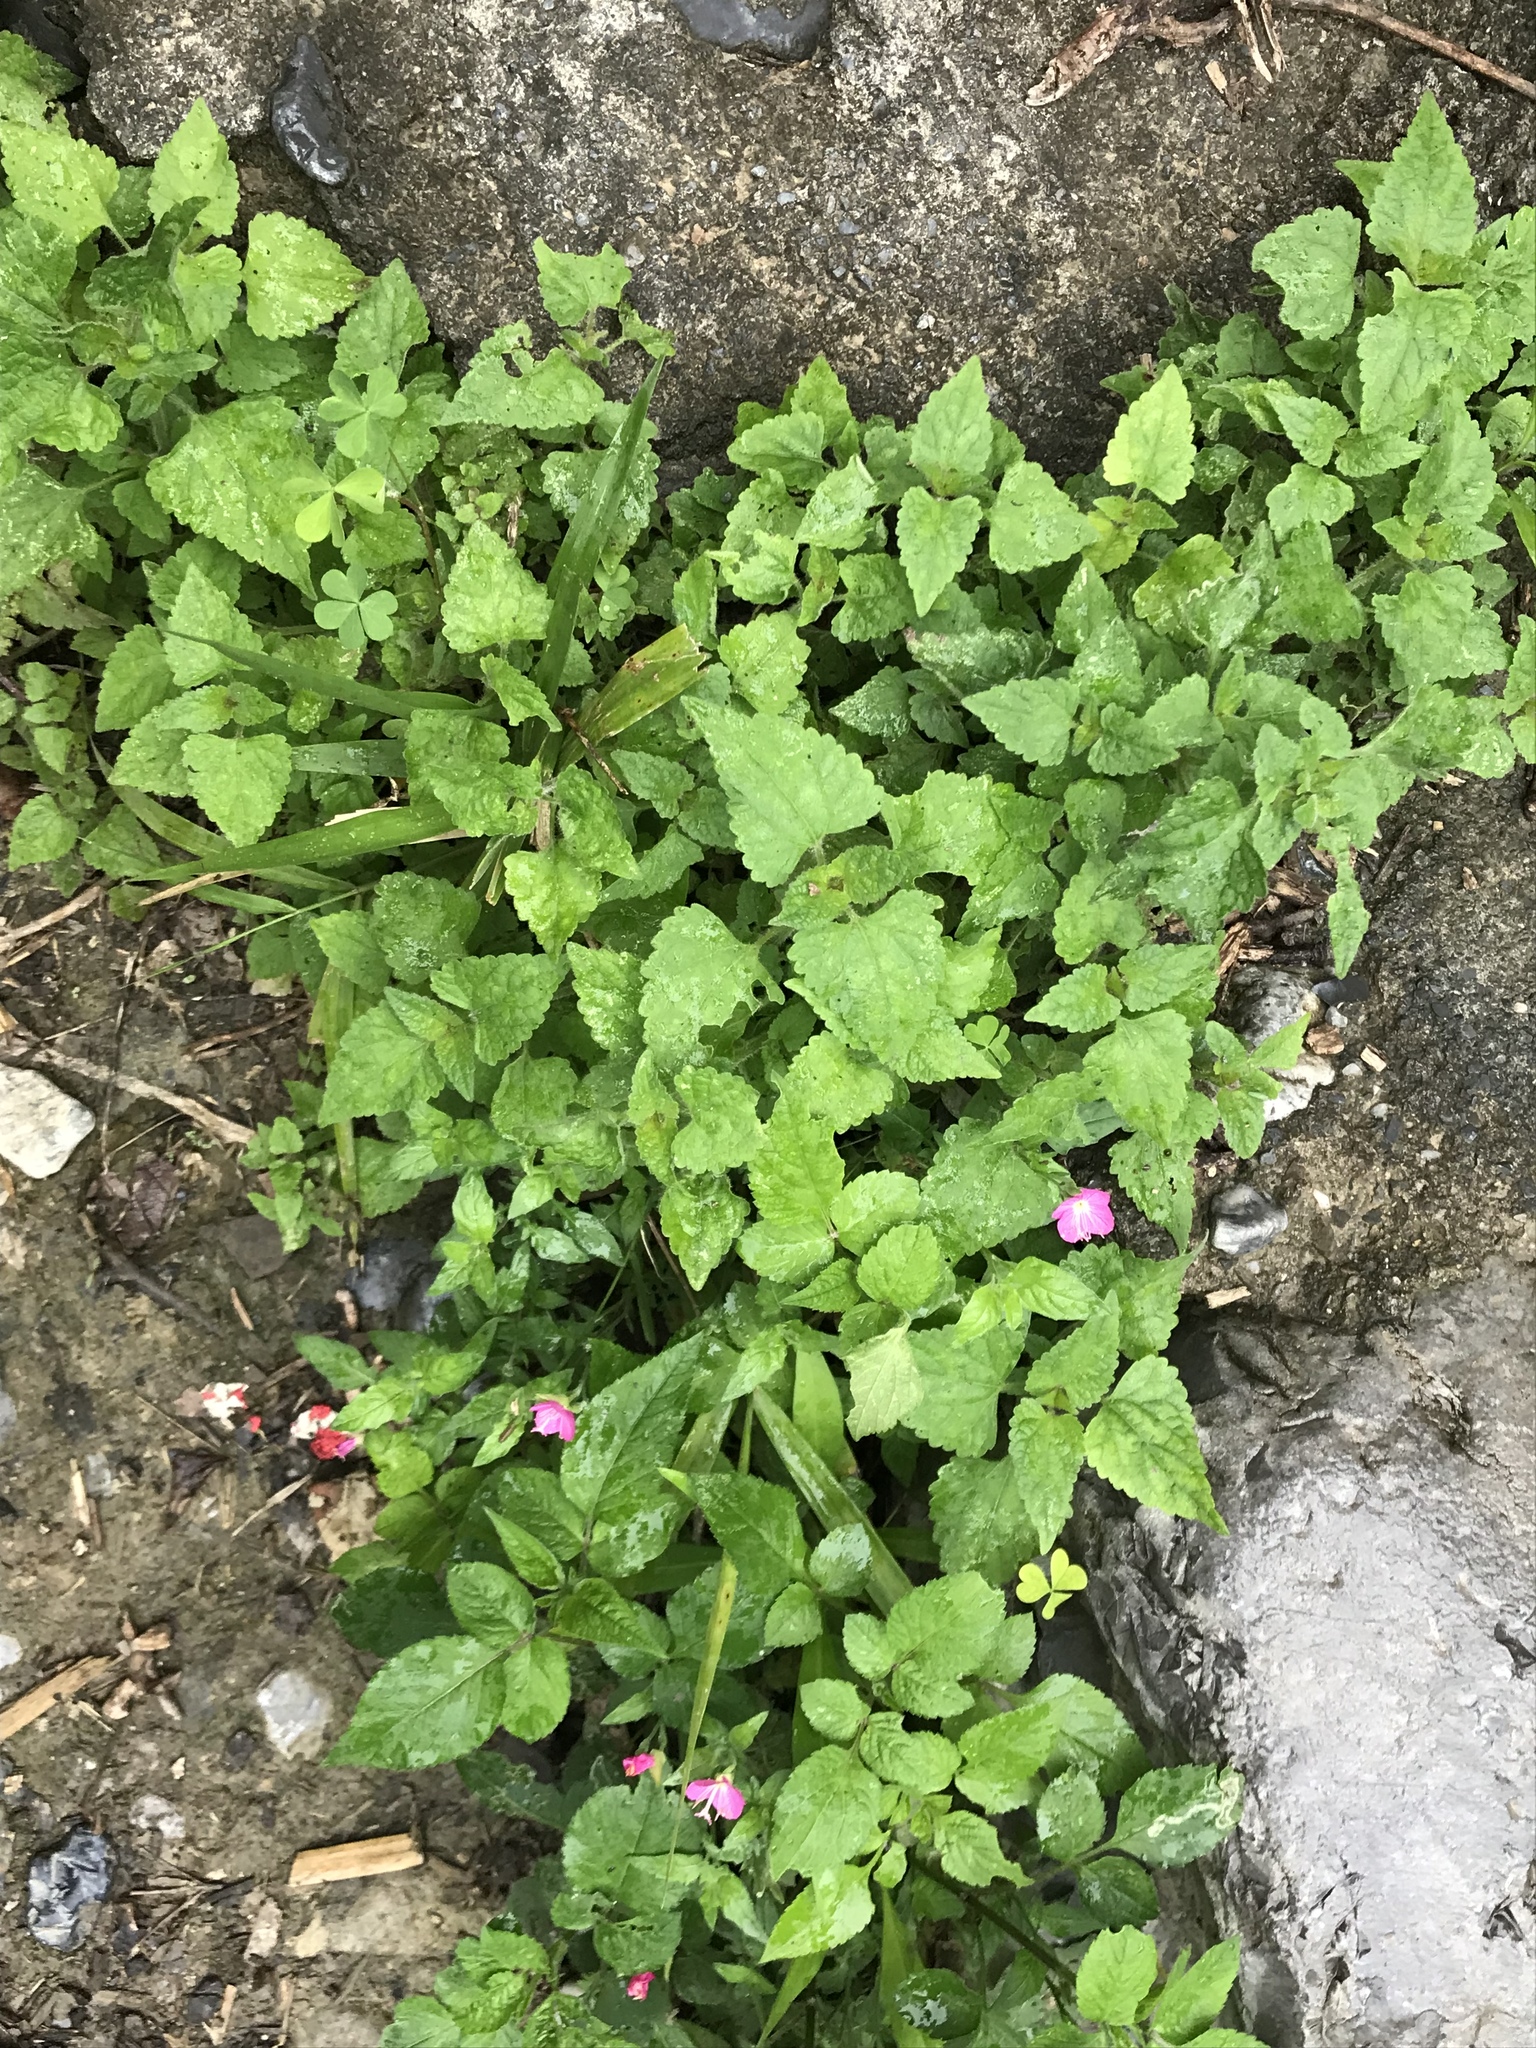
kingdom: Plantae
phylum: Tracheophyta
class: Magnoliopsida
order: Myrtales
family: Onagraceae
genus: Oenothera
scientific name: Oenothera rosea
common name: Rosy evening-primrose
